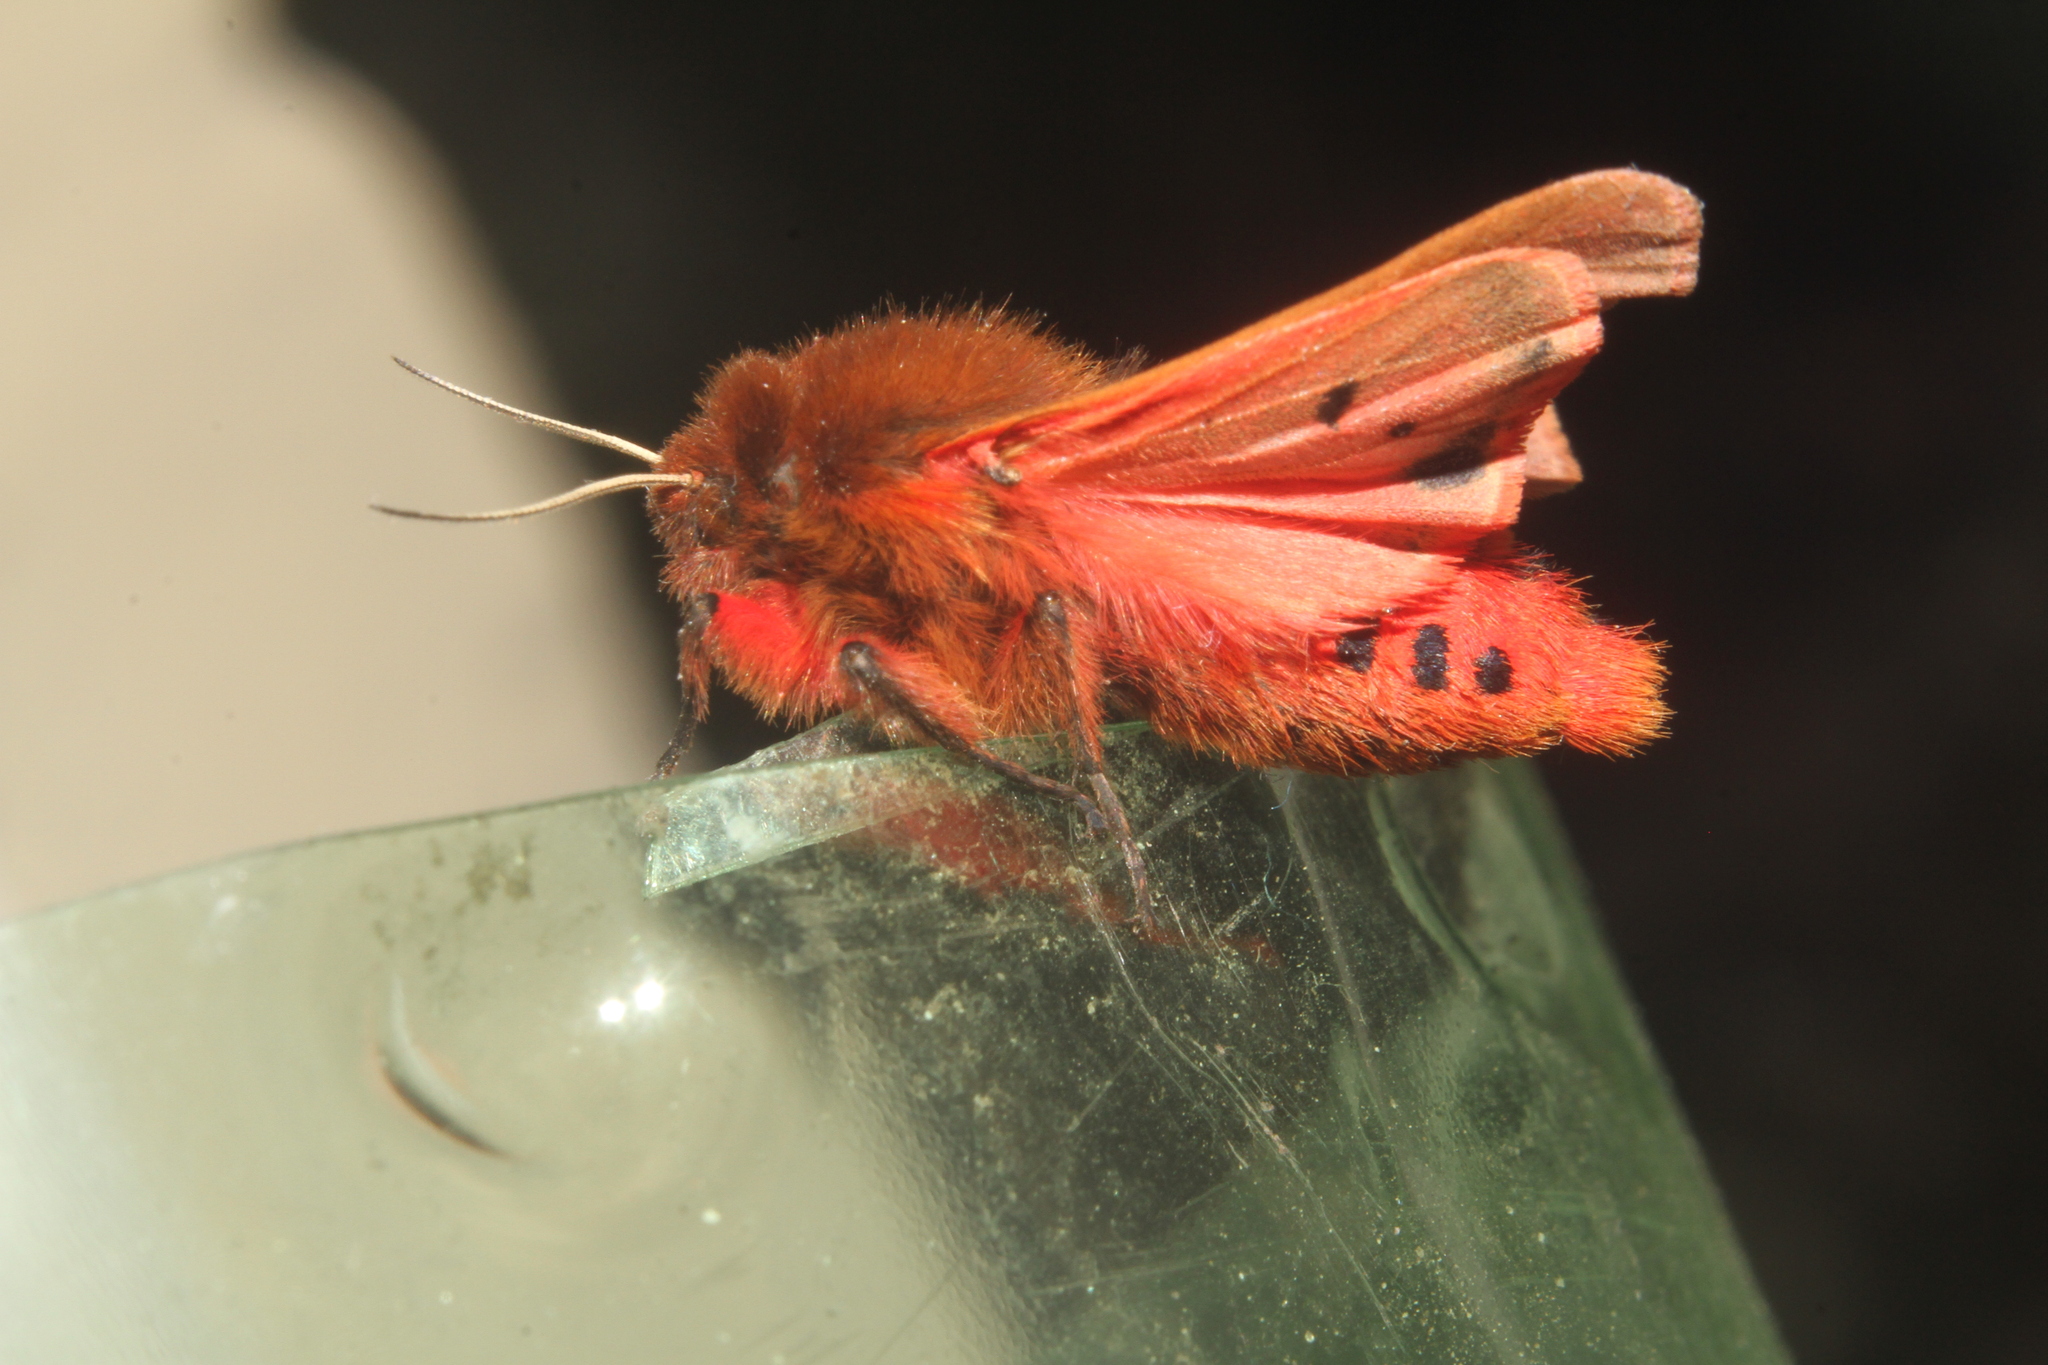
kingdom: Animalia
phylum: Arthropoda
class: Insecta
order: Lepidoptera
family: Erebidae
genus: Phragmatobia
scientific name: Phragmatobia fuliginosa
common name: Ruby tiger
